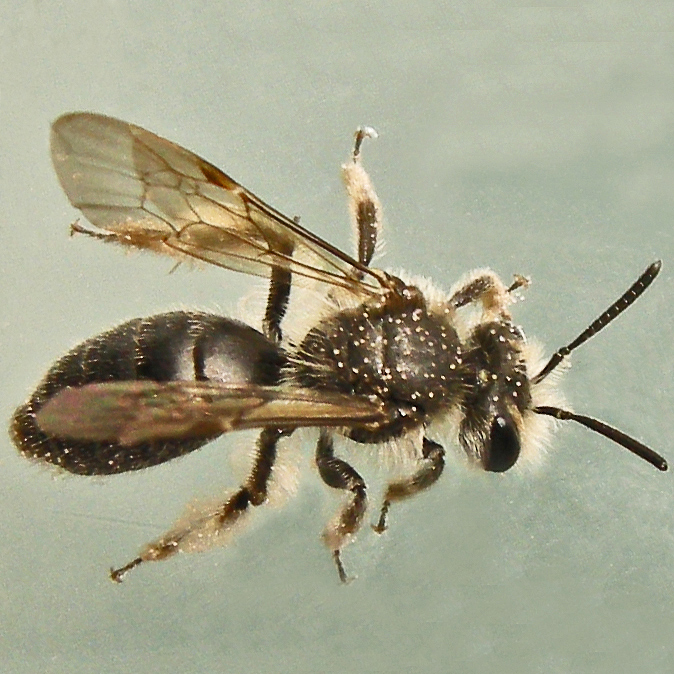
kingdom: Animalia
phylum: Arthropoda
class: Insecta
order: Hymenoptera
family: Andrenidae
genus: Andrena
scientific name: Andrena erigeniae
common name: Spring beauty miner
